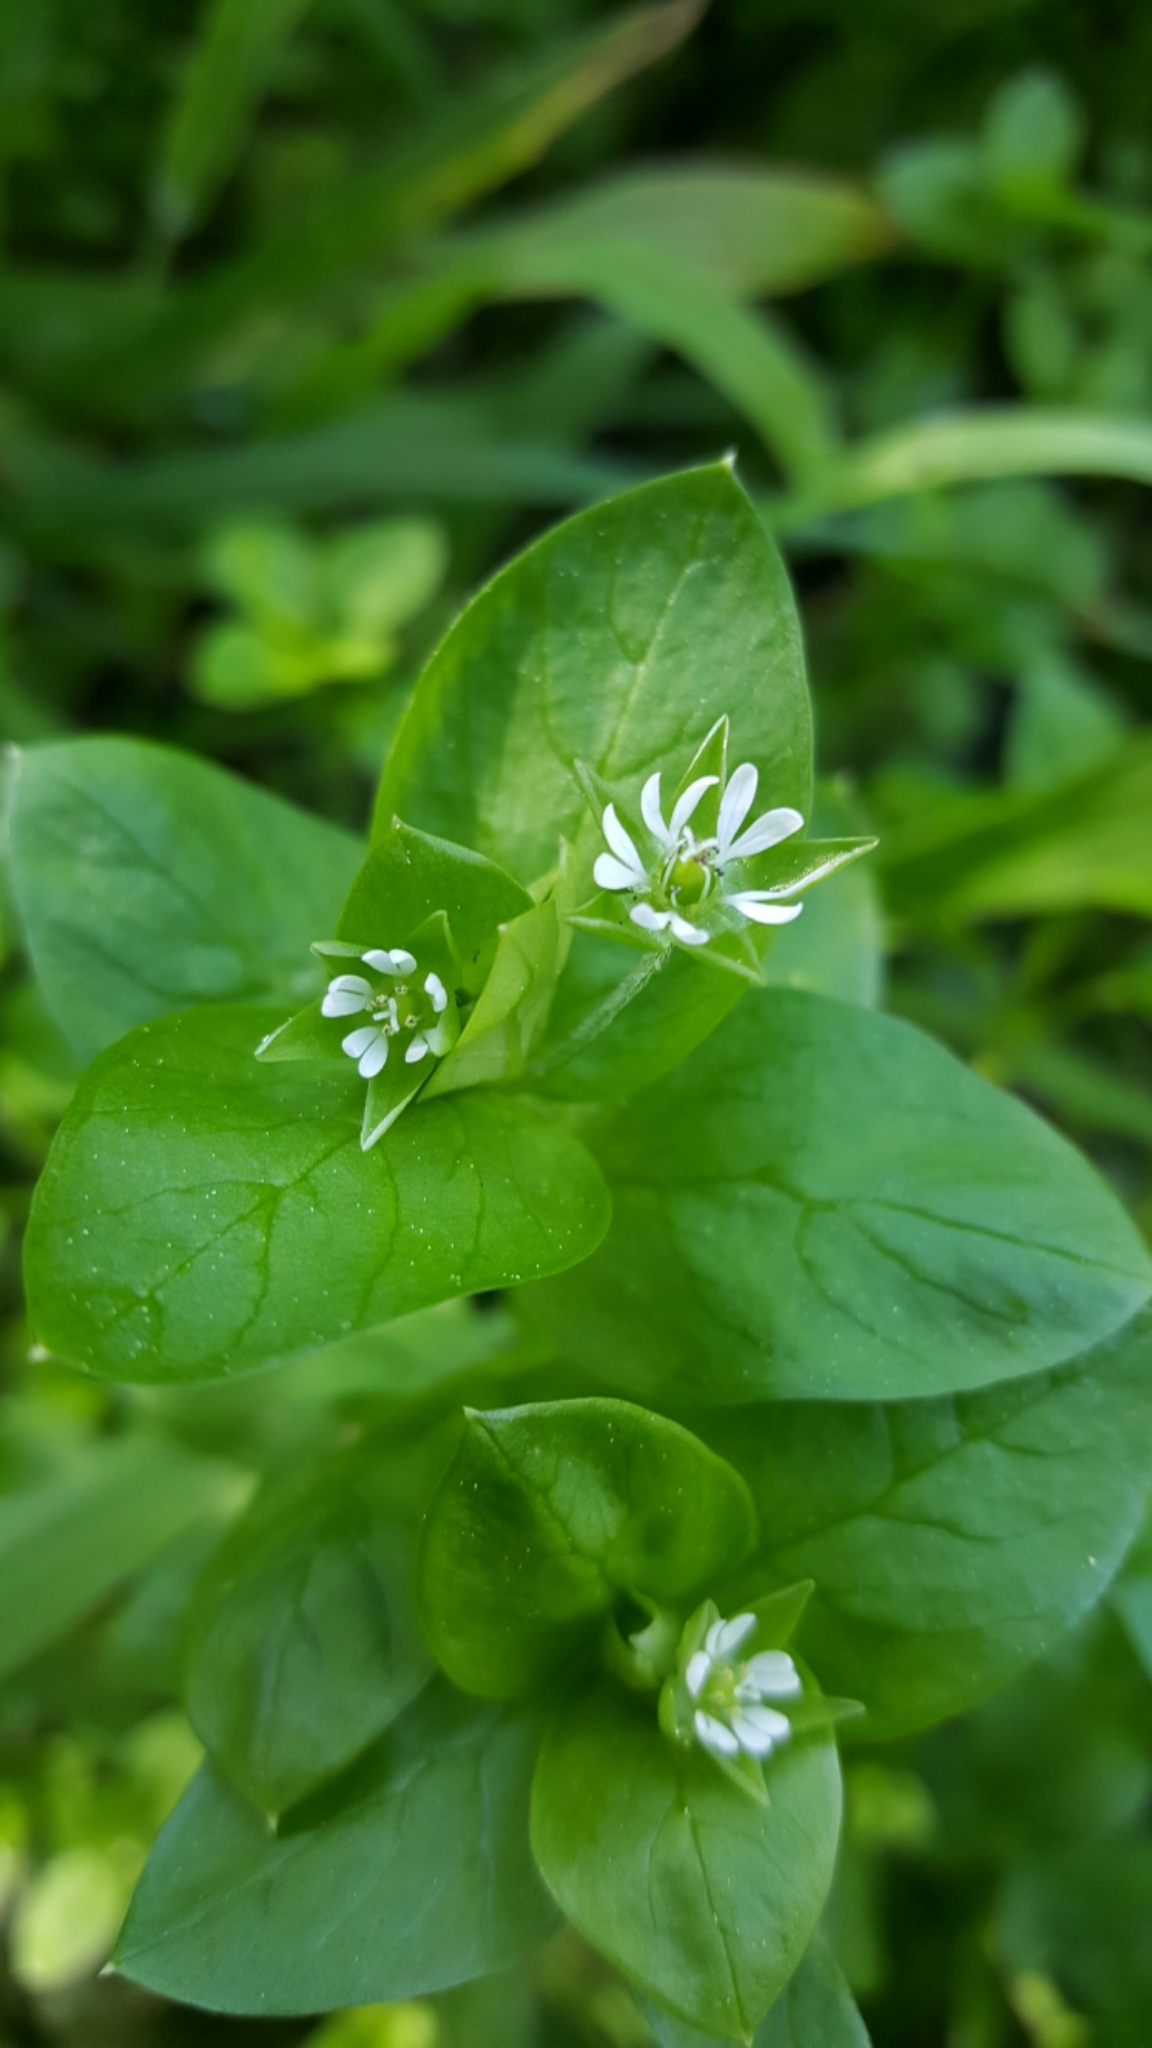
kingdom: Plantae
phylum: Tracheophyta
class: Magnoliopsida
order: Caryophyllales
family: Caryophyllaceae
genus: Stellaria
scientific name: Stellaria media
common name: Common chickweed
